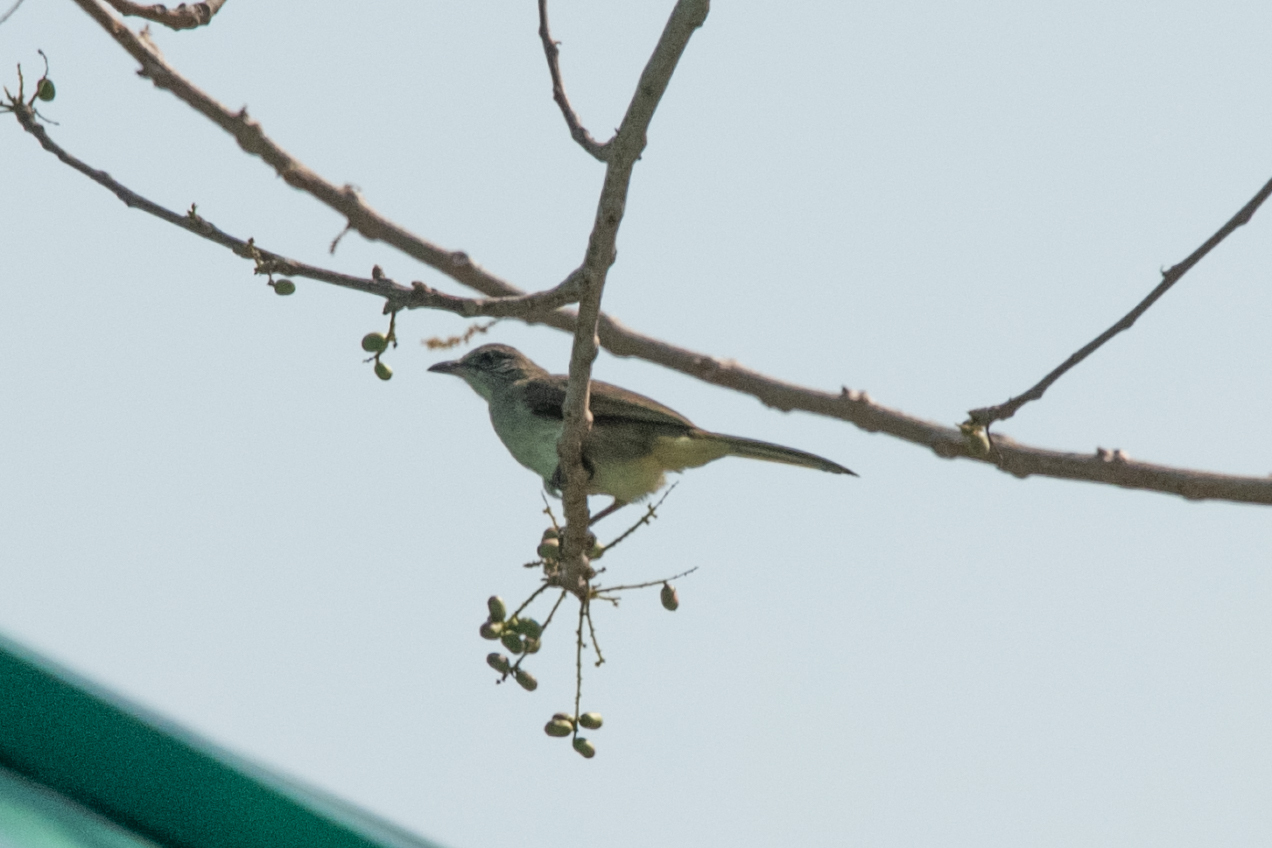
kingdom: Animalia
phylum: Chordata
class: Aves
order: Passeriformes
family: Pycnonotidae
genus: Pycnonotus
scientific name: Pycnonotus blanfordi
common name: Streak-eared bulbul
